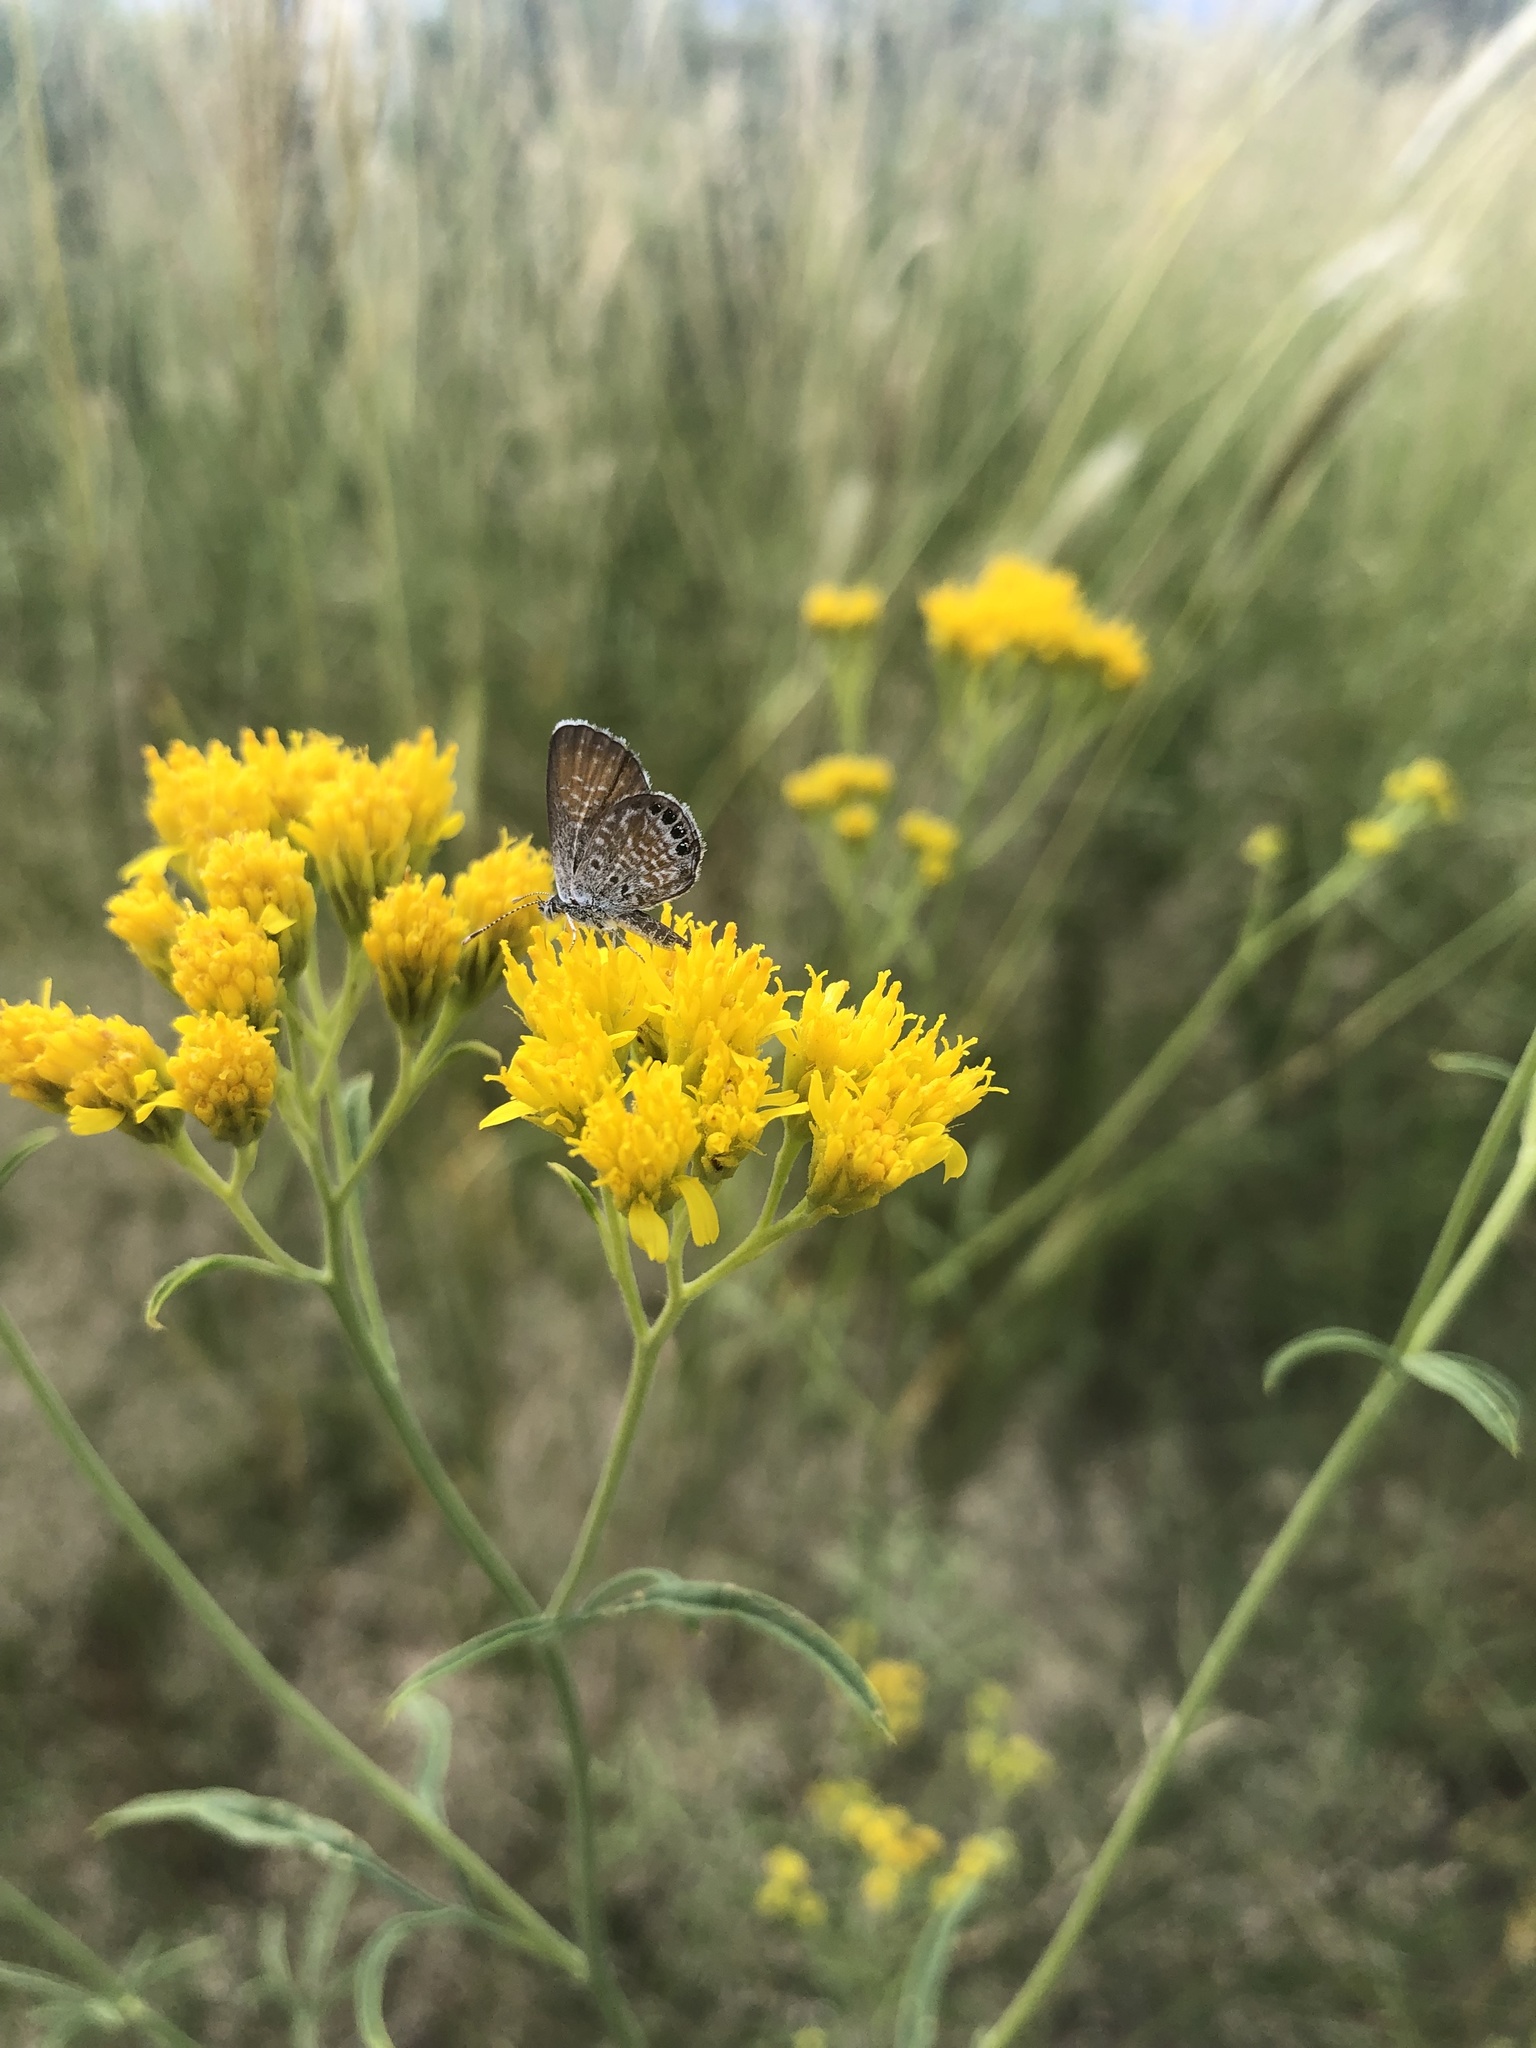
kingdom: Plantae
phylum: Tracheophyta
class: Magnoliopsida
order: Asterales
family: Asteraceae
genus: Hymenothrix
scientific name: Hymenothrix wislizeni
